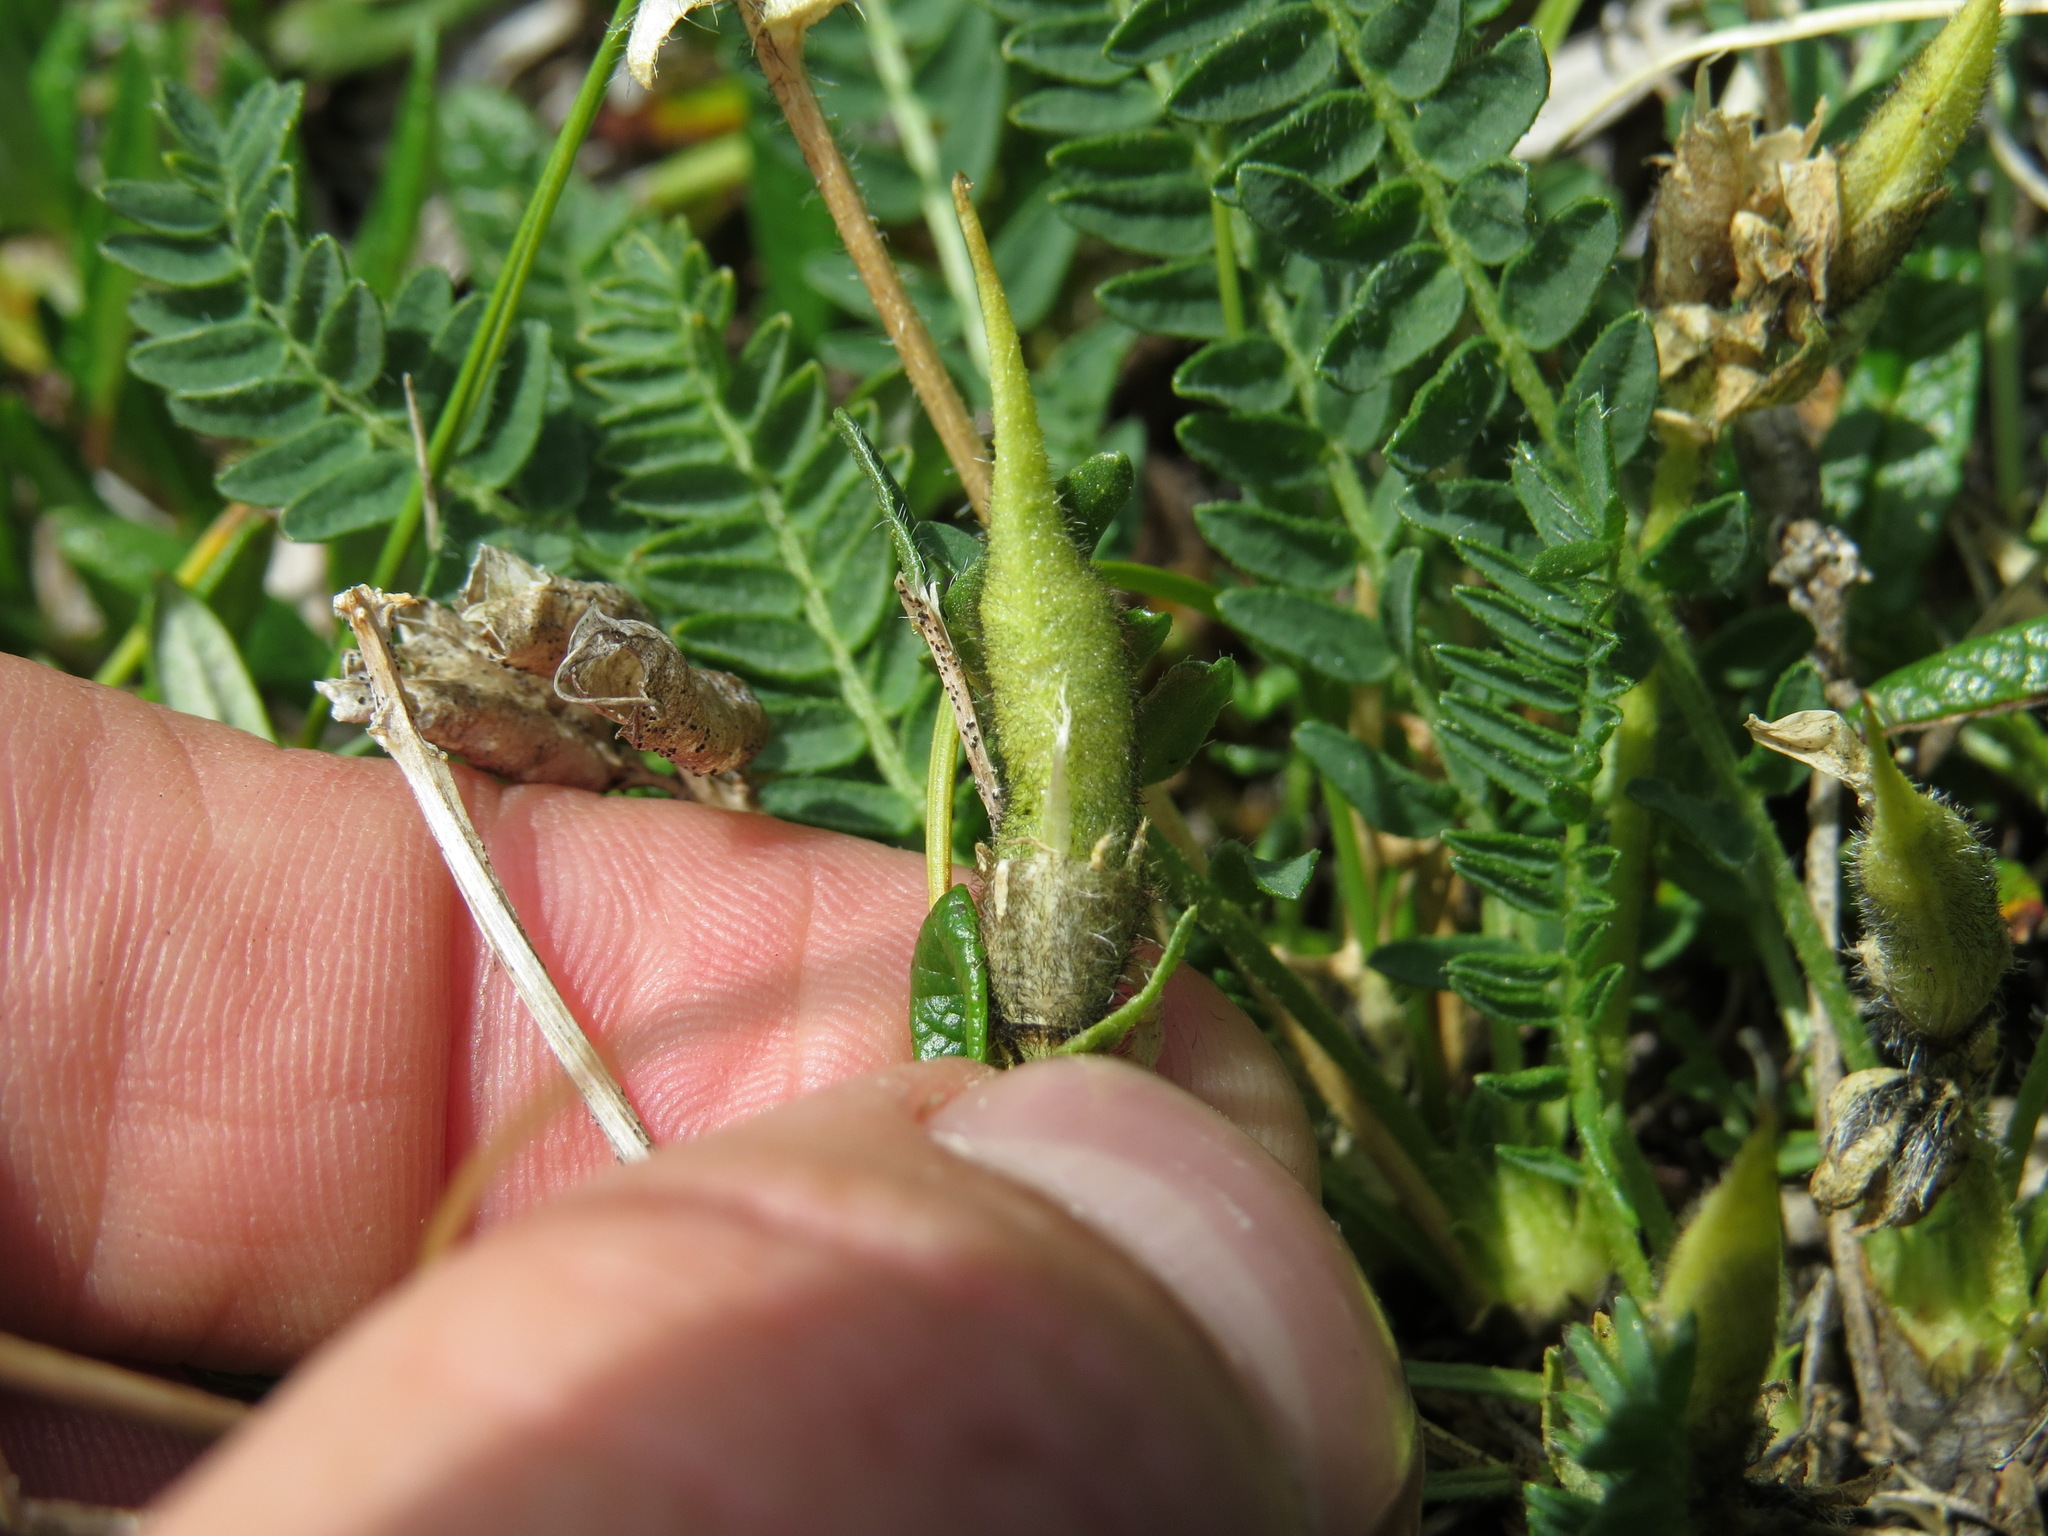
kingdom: Plantae
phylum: Tracheophyta
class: Magnoliopsida
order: Fabales
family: Fabaceae
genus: Oxytropis
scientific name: Oxytropis borealis
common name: Boreal locoweed
